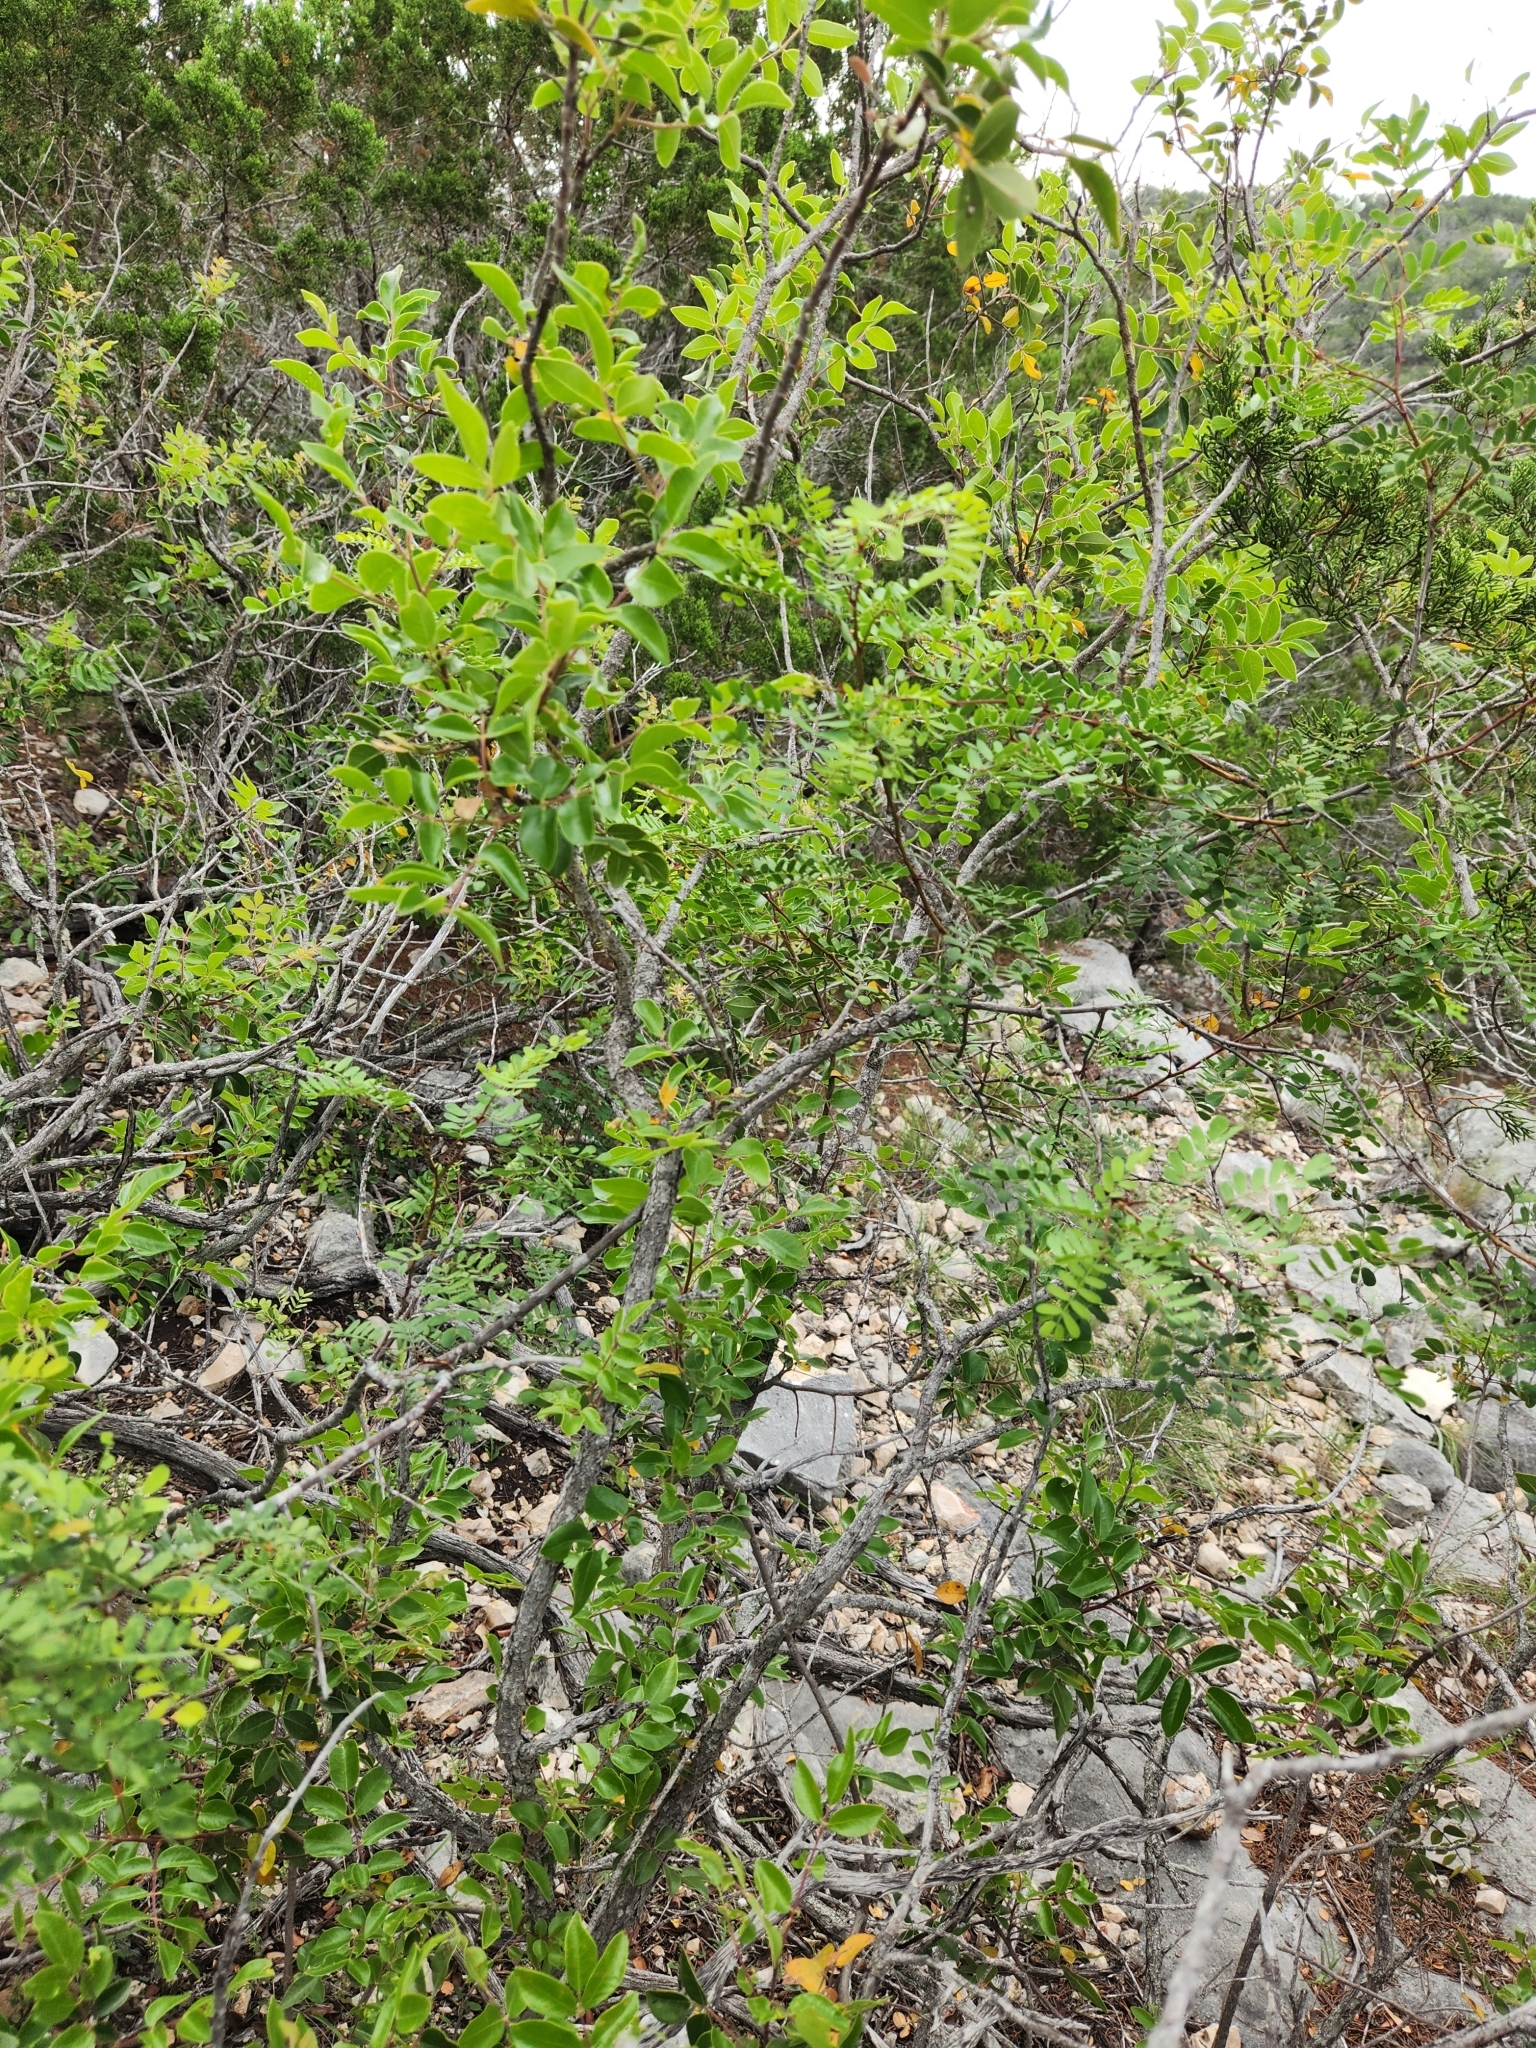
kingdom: Plantae
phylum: Tracheophyta
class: Magnoliopsida
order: Fabales
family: Fabaceae
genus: Senegalia
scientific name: Senegalia roemeriana
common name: Roemer's acacia
